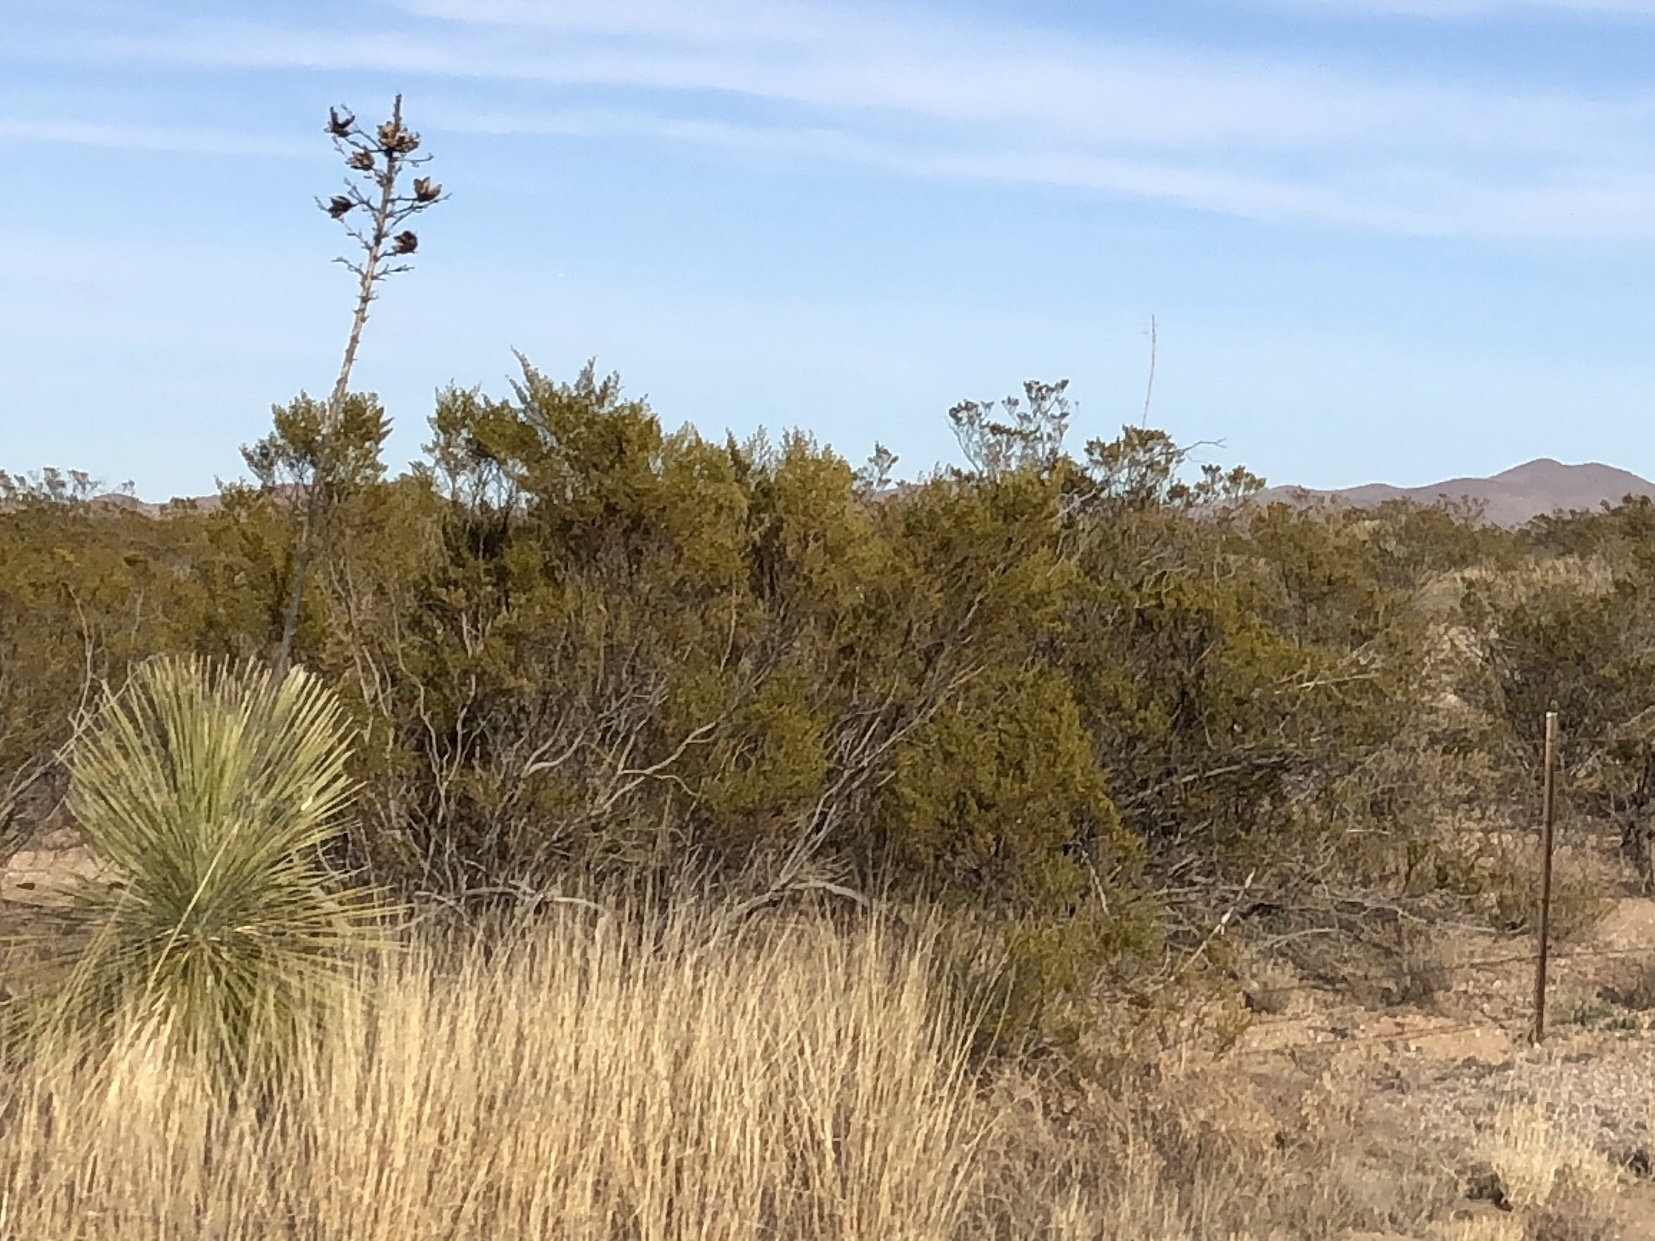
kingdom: Plantae
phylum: Tracheophyta
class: Magnoliopsida
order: Zygophyllales
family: Zygophyllaceae
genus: Larrea
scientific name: Larrea tridentata
